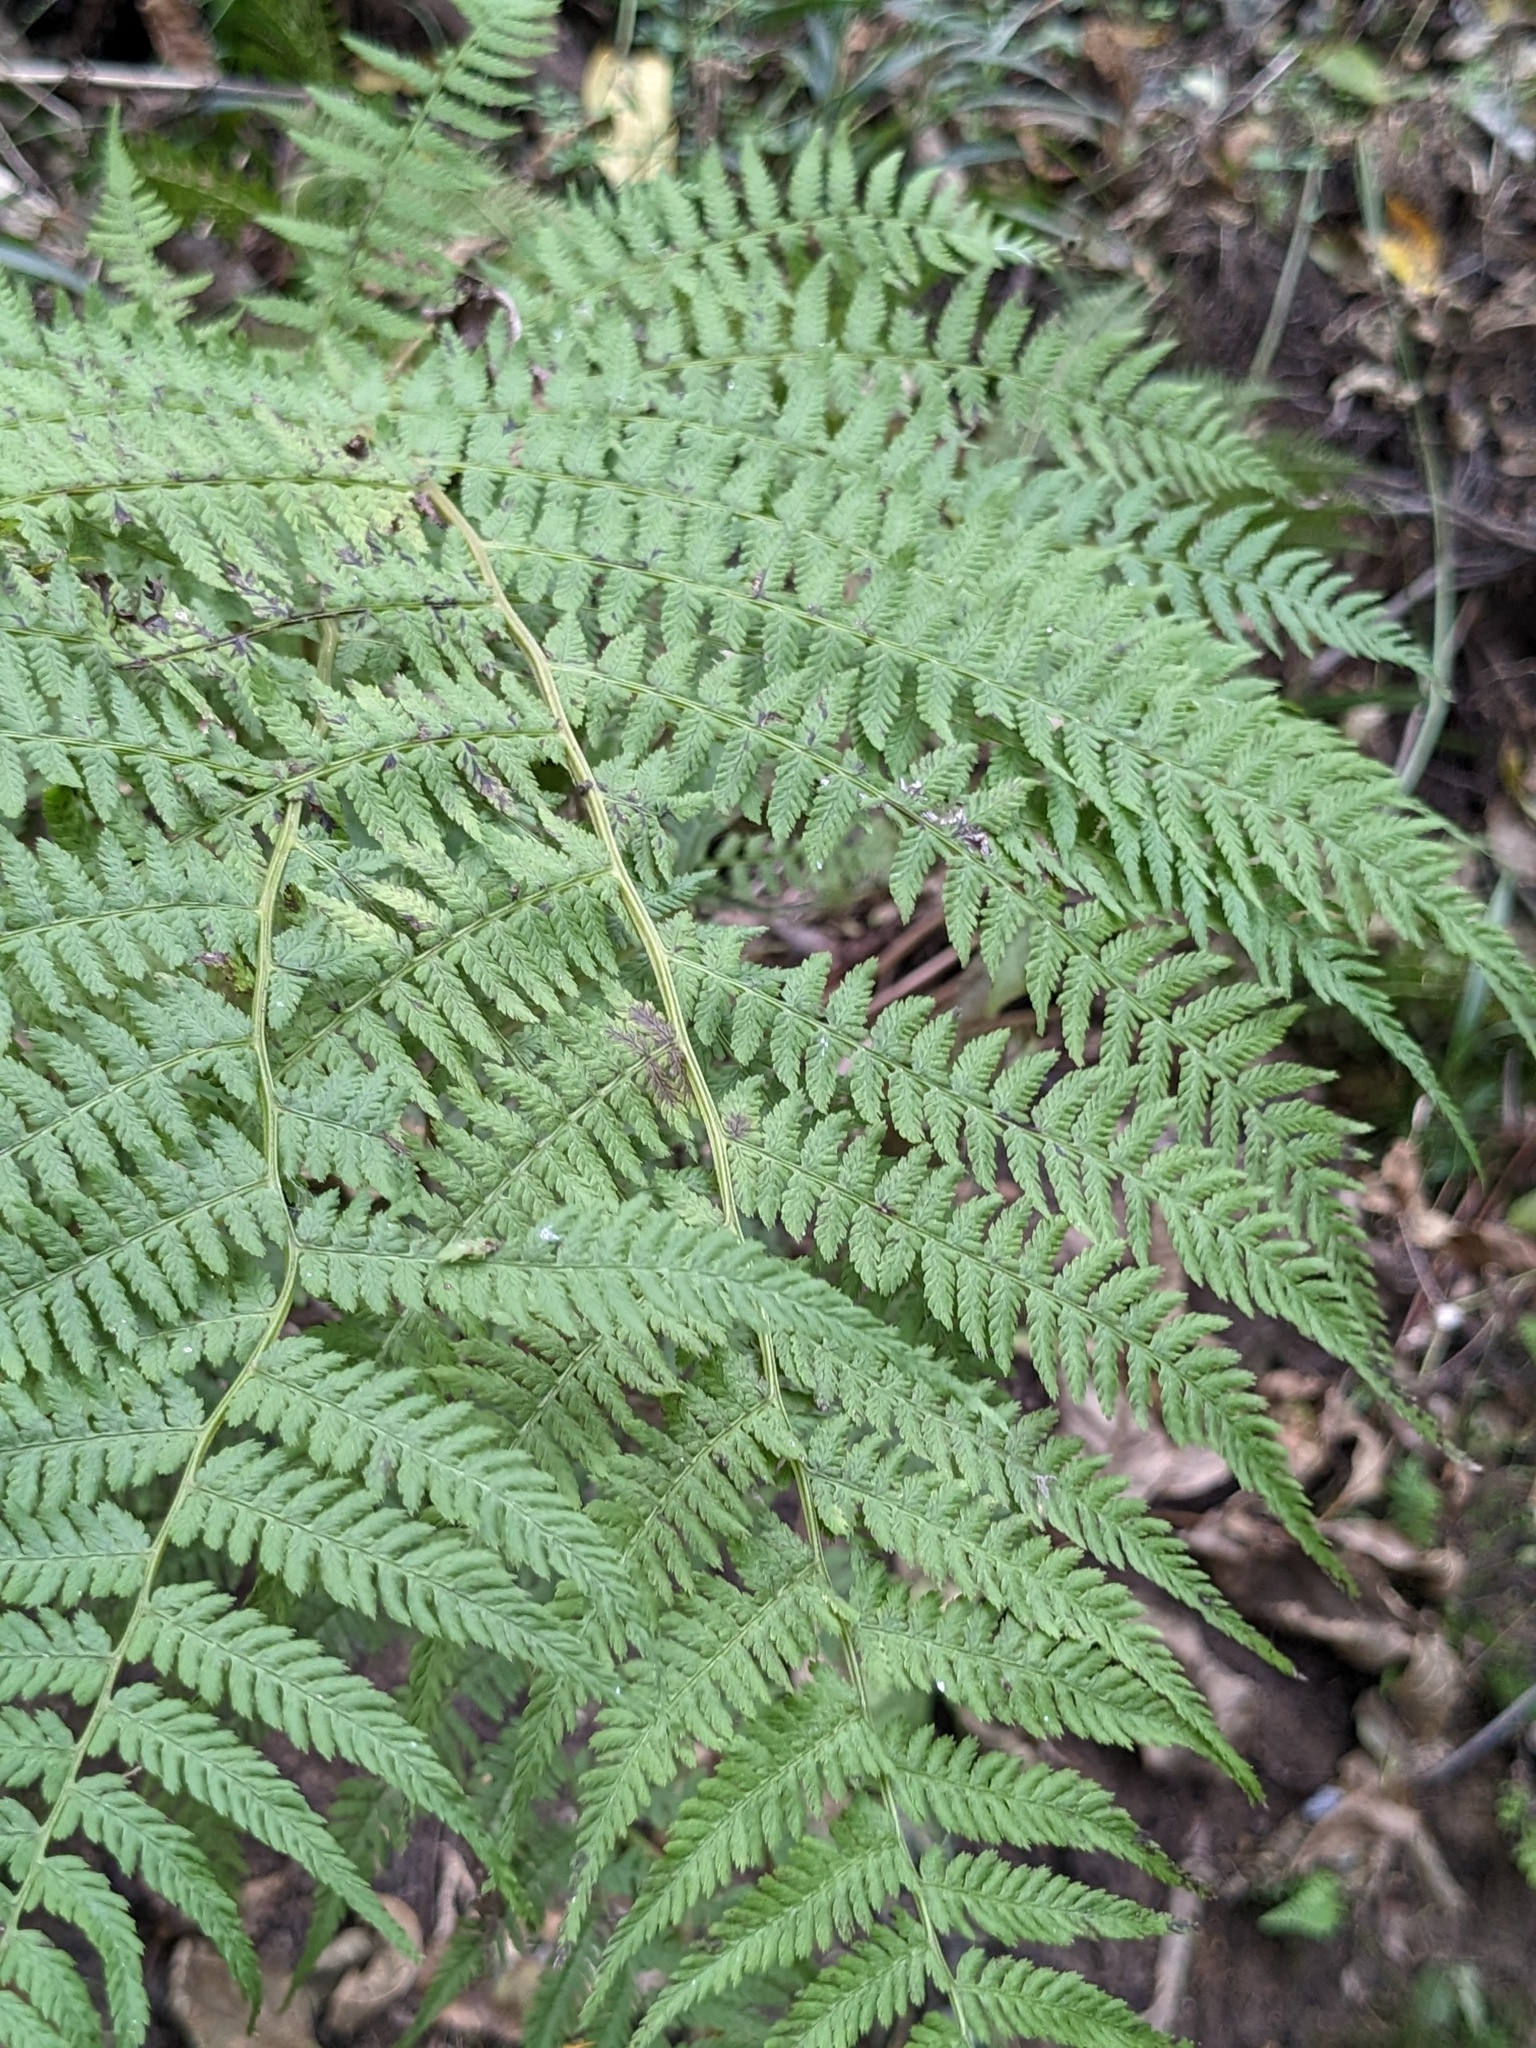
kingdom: Plantae
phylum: Tracheophyta
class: Polypodiopsida
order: Polypodiales
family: Athyriaceae
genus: Athyrium
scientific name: Athyrium filix-femina
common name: Lady fern
